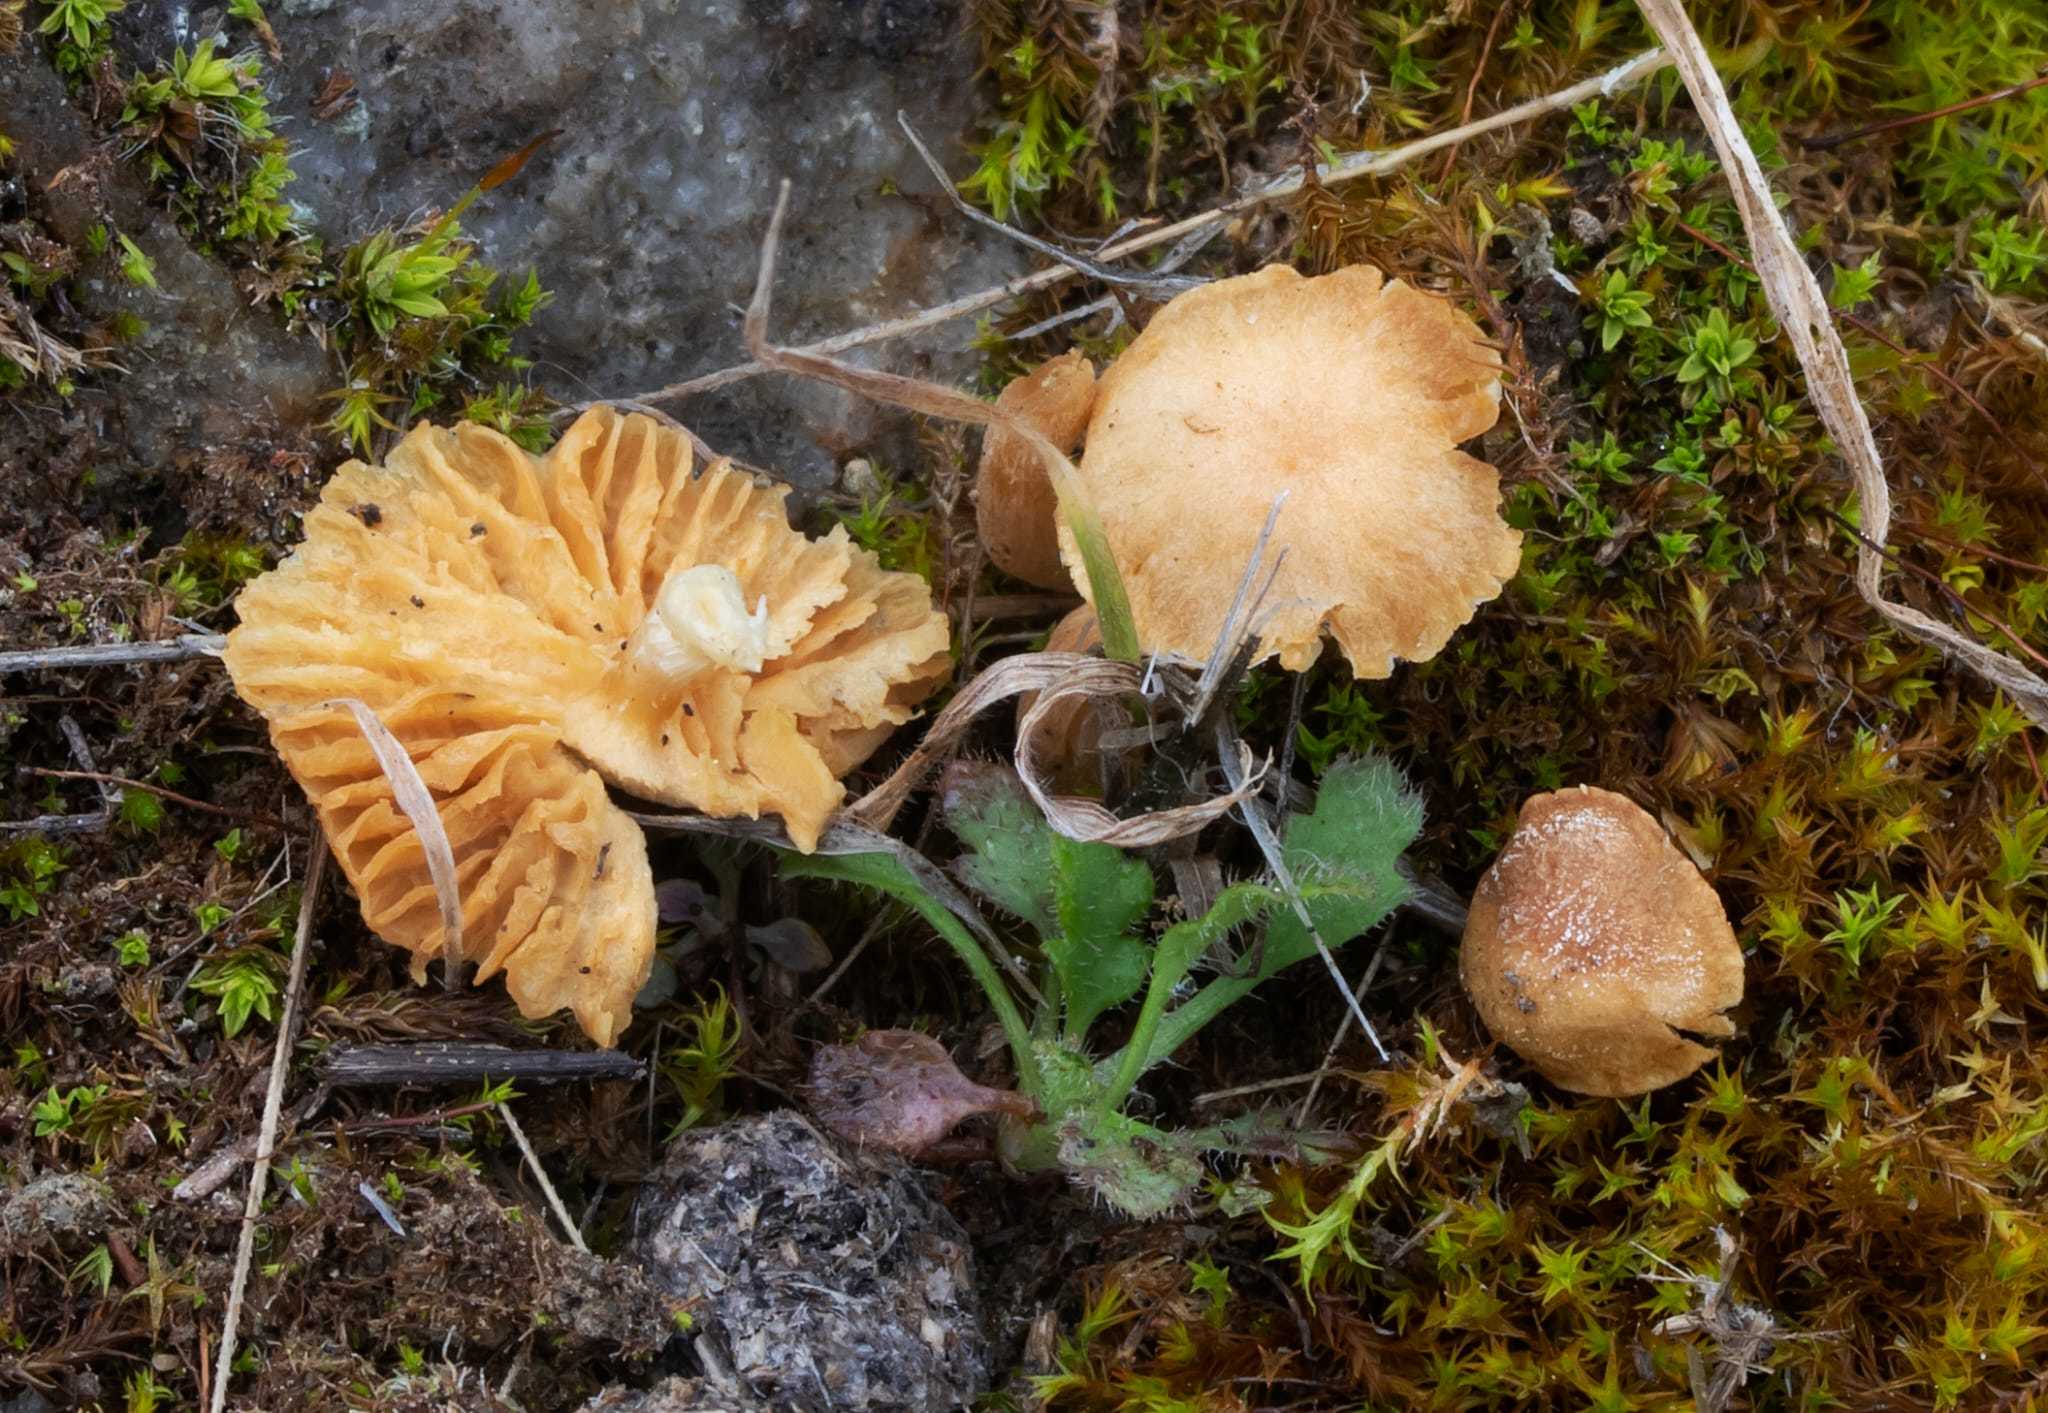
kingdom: Fungi
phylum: Basidiomycota
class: Agaricomycetes
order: Agaricales
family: Hymenogastraceae
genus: Galerina
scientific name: Galerina discreta
